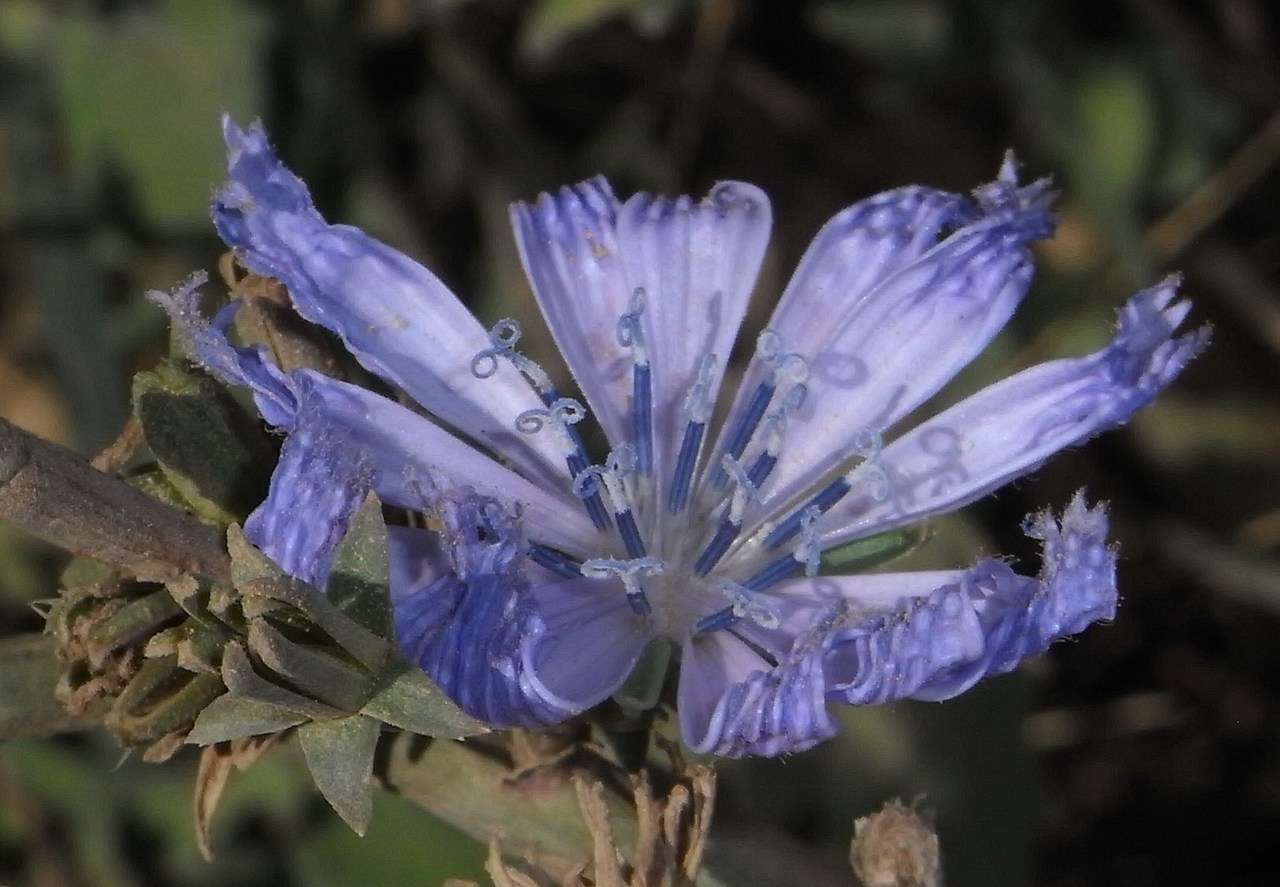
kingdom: Plantae
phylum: Tracheophyta
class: Magnoliopsida
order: Asterales
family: Asteraceae
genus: Cichorium
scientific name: Cichorium intybus
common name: Chicory
